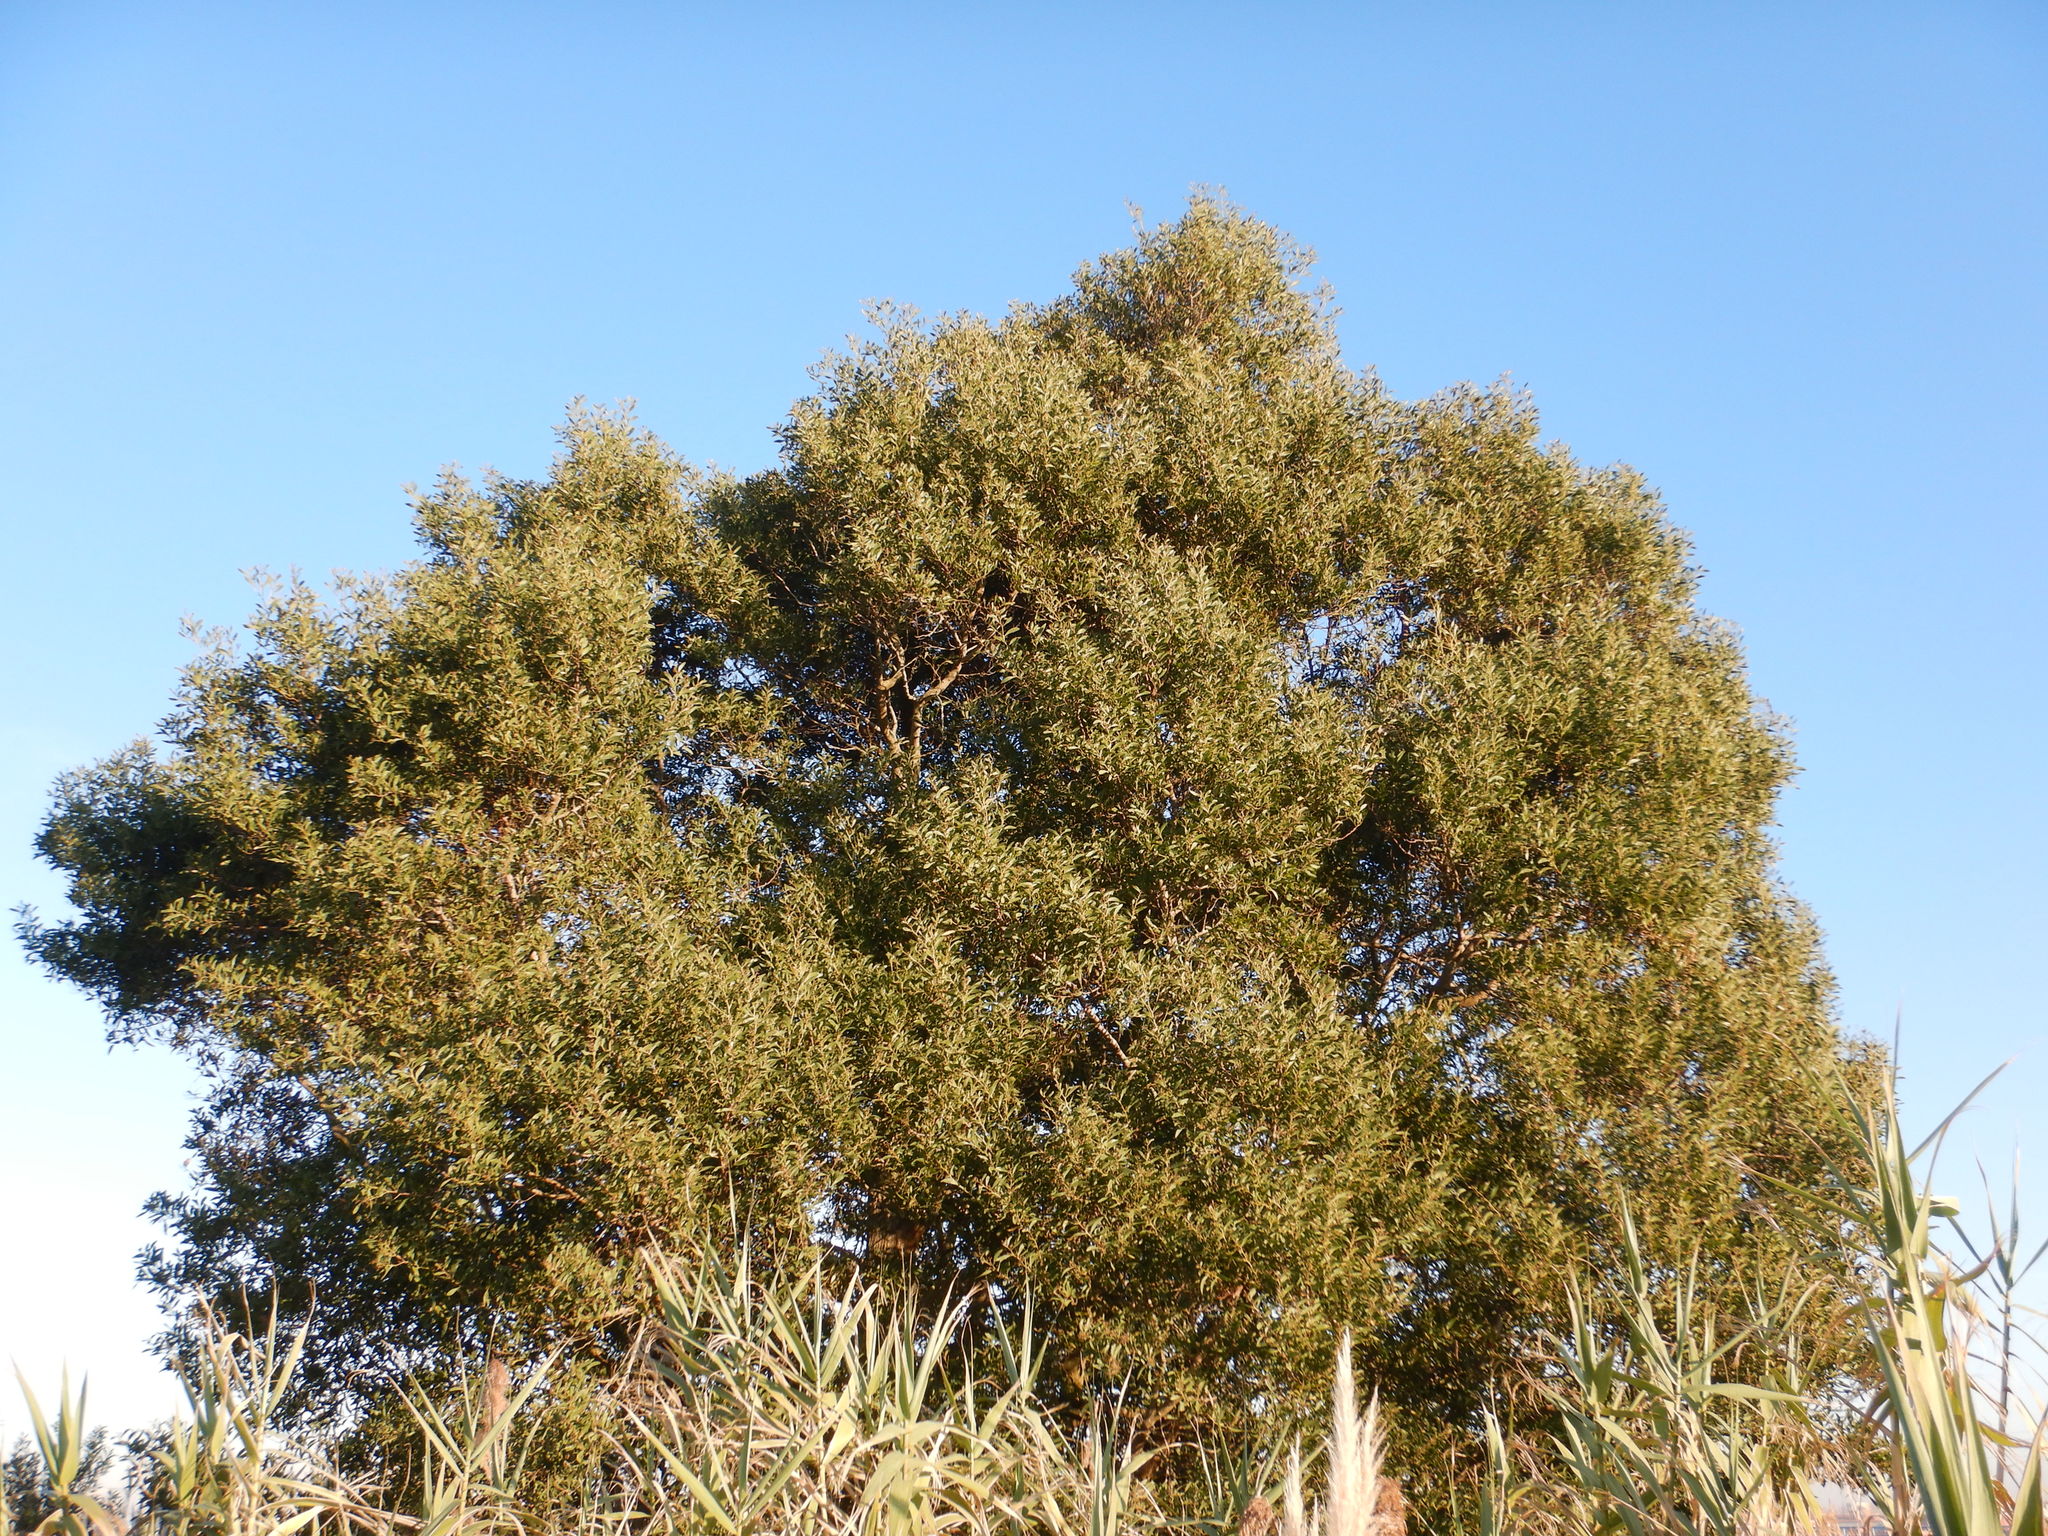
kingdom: Plantae
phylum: Tracheophyta
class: Magnoliopsida
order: Fabales
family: Fabaceae
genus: Acacia
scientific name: Acacia melanoxylon
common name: Blackwood
